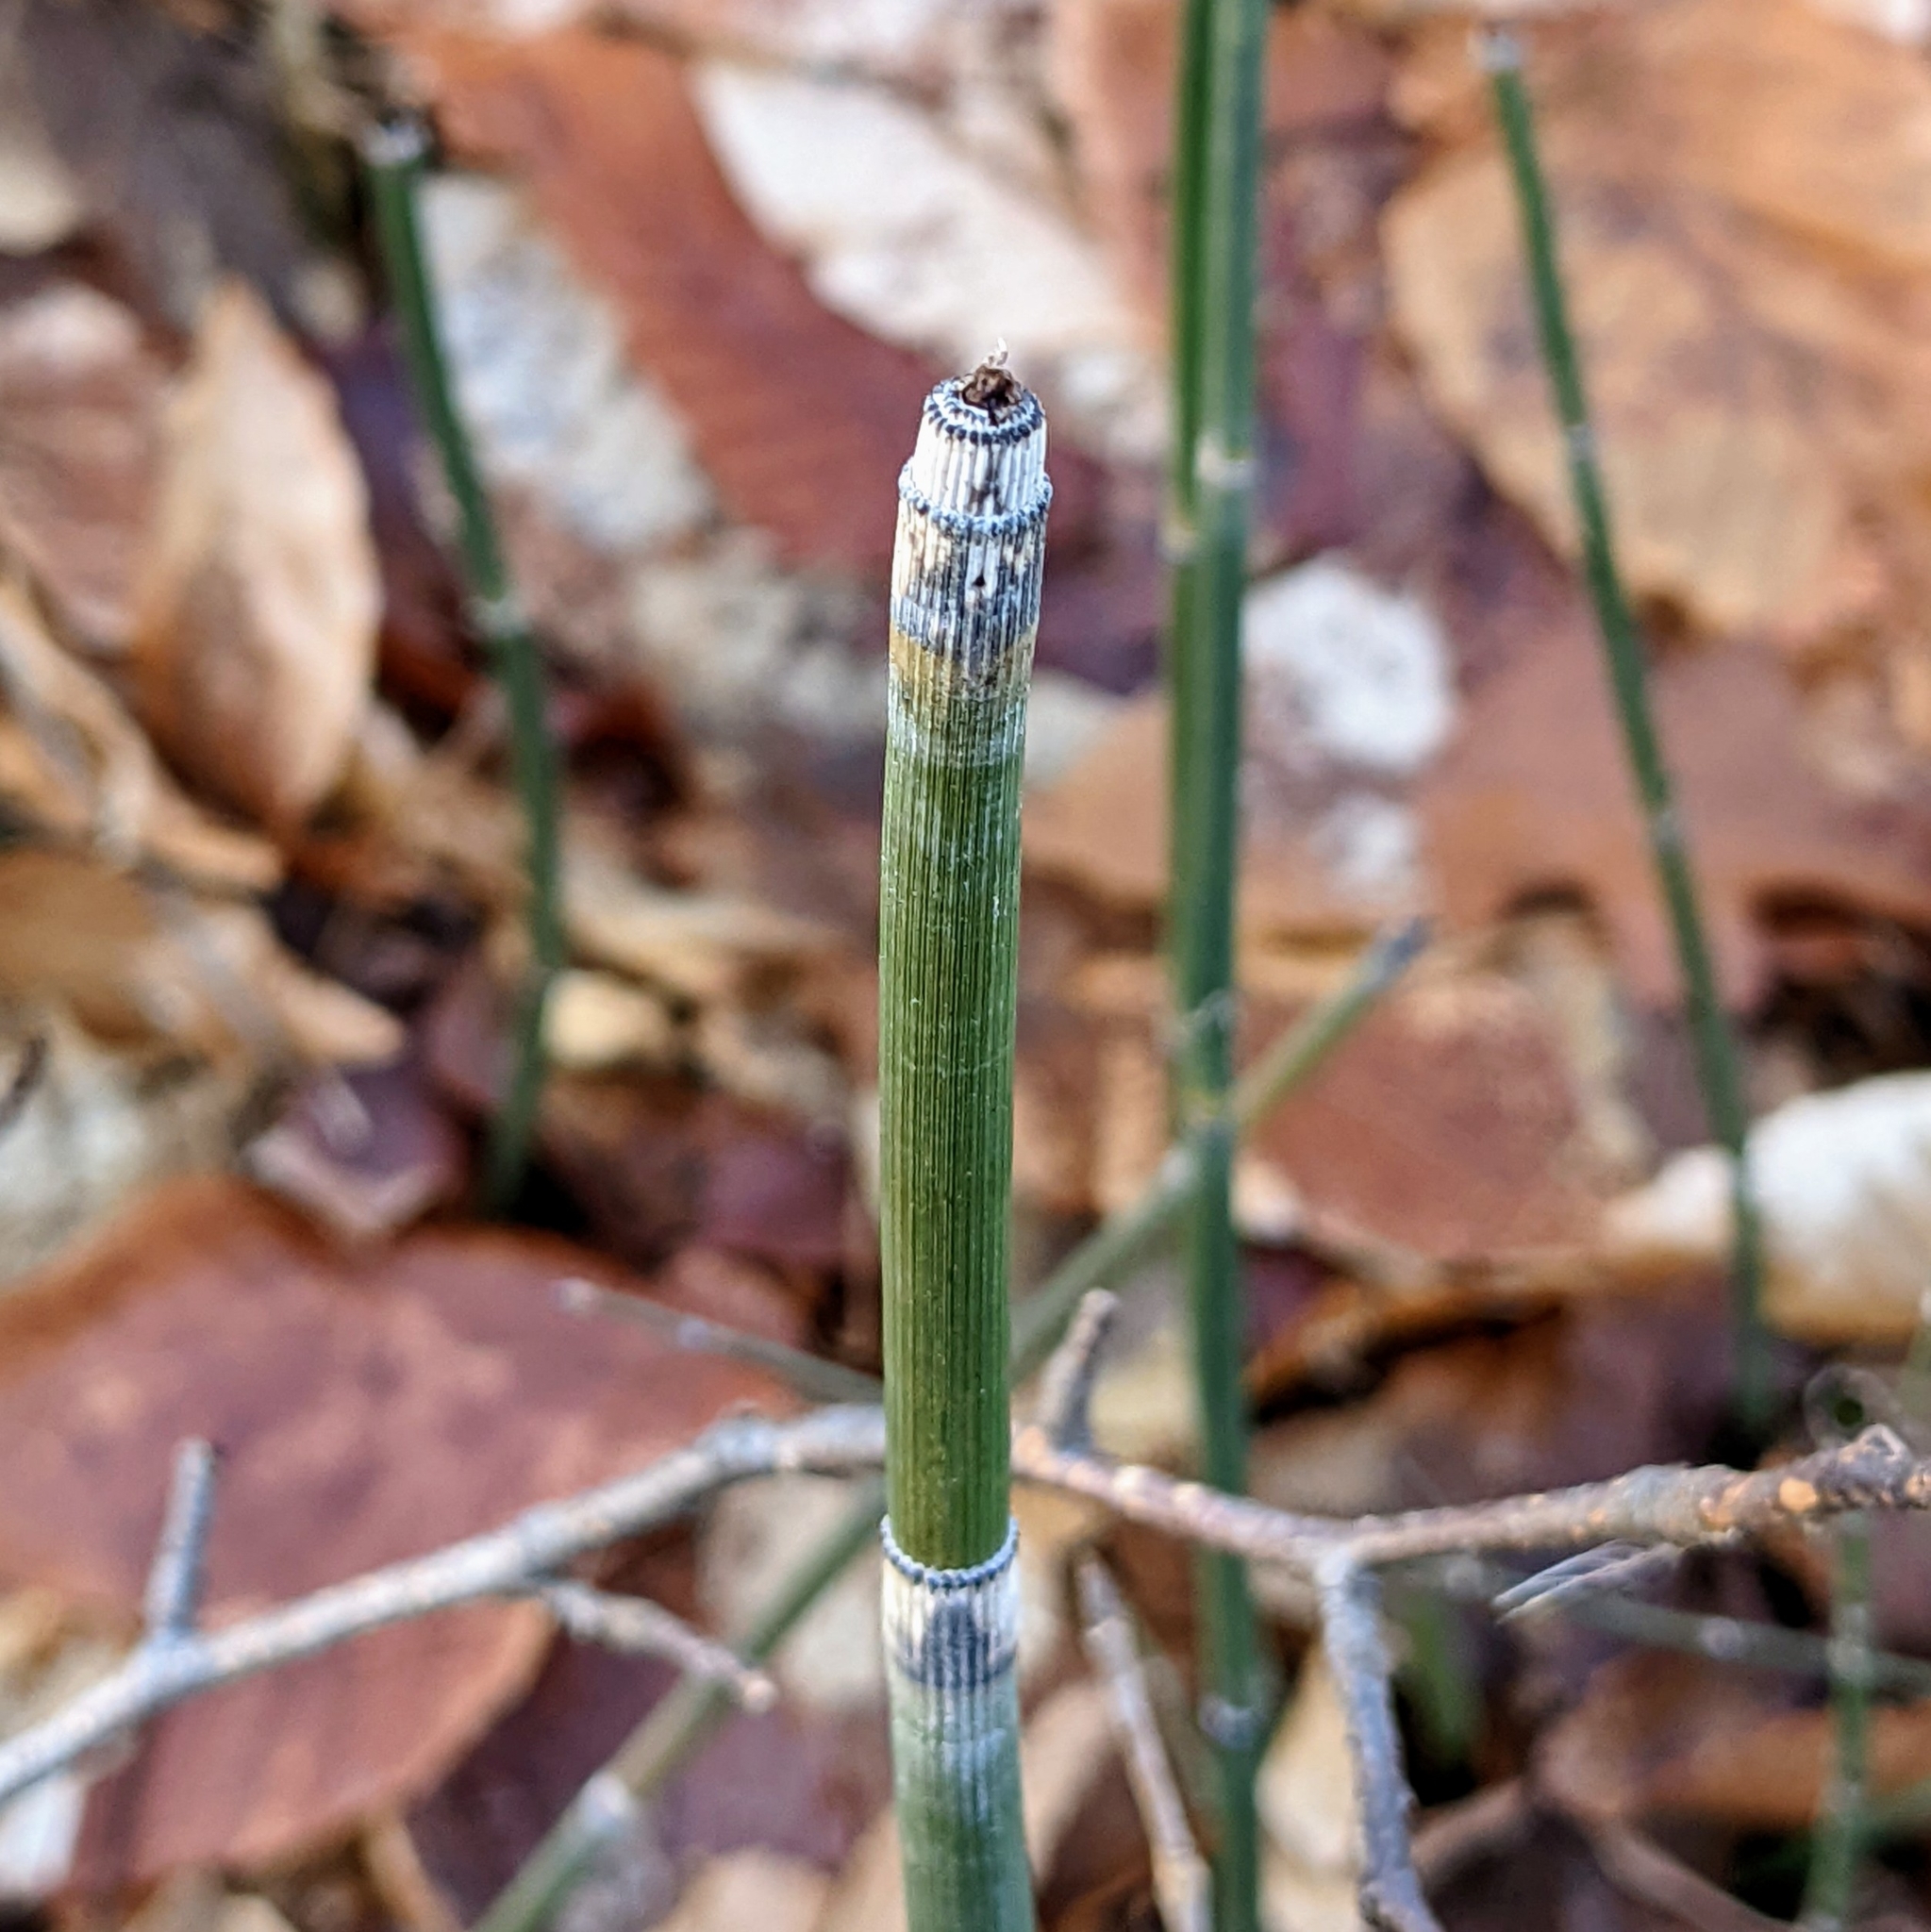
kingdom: Plantae
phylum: Tracheophyta
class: Polypodiopsida
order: Equisetales
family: Equisetaceae
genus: Equisetum
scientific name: Equisetum praealtum
